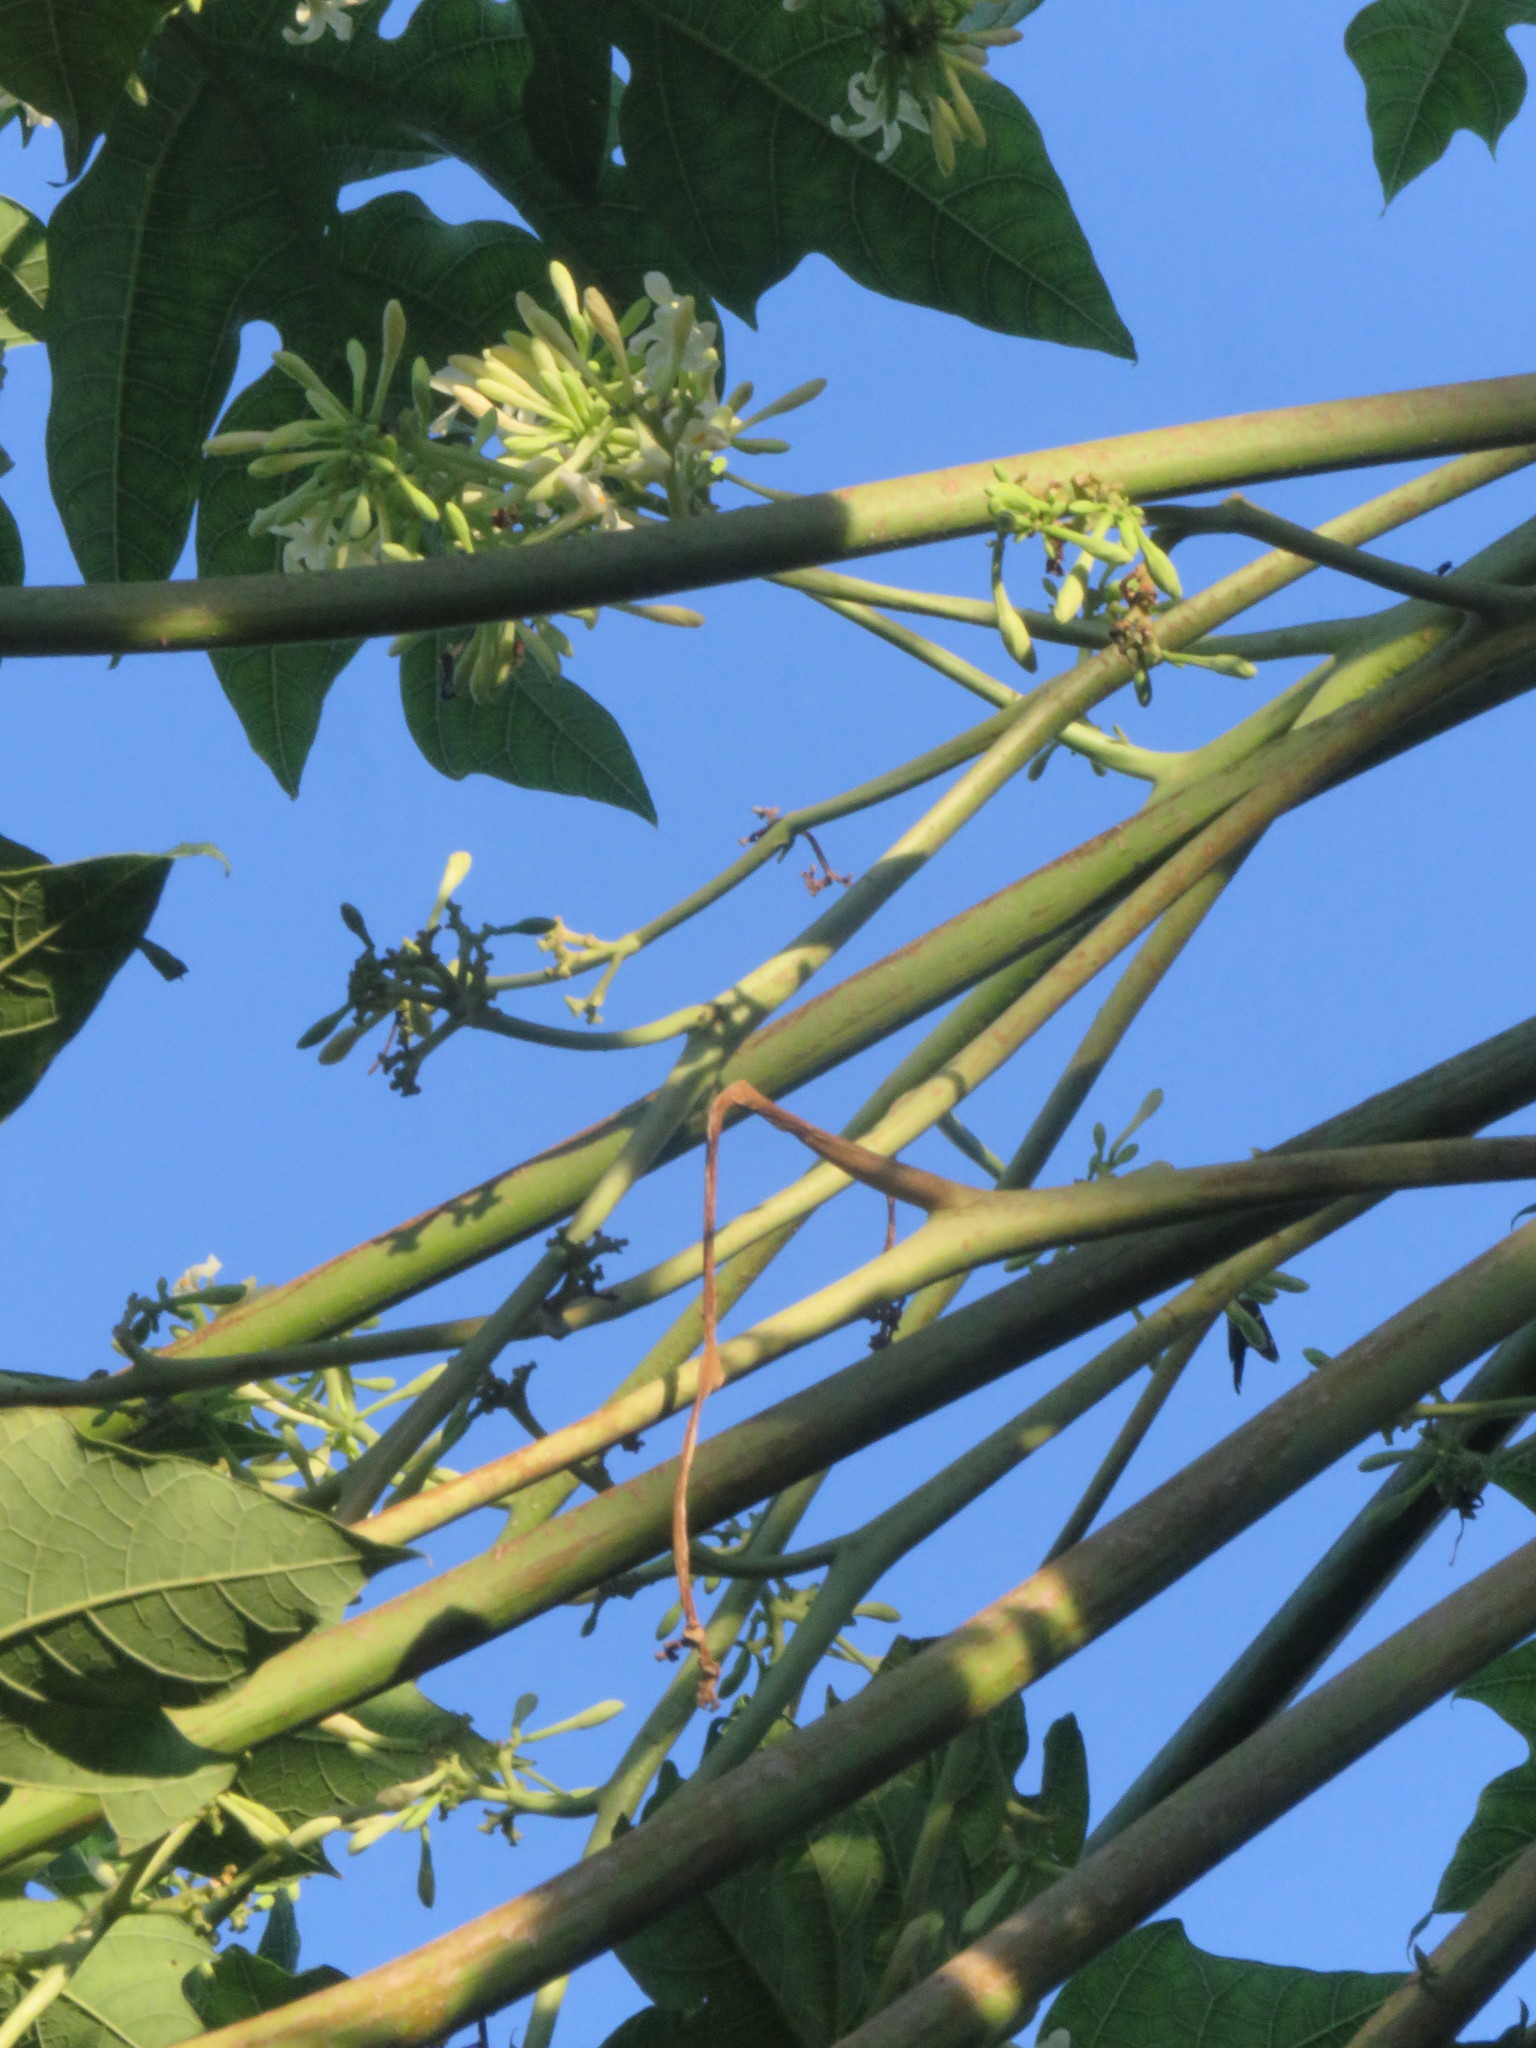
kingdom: Plantae
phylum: Tracheophyta
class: Magnoliopsida
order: Brassicales
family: Caricaceae
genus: Carica
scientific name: Carica papaya
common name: Papaya
